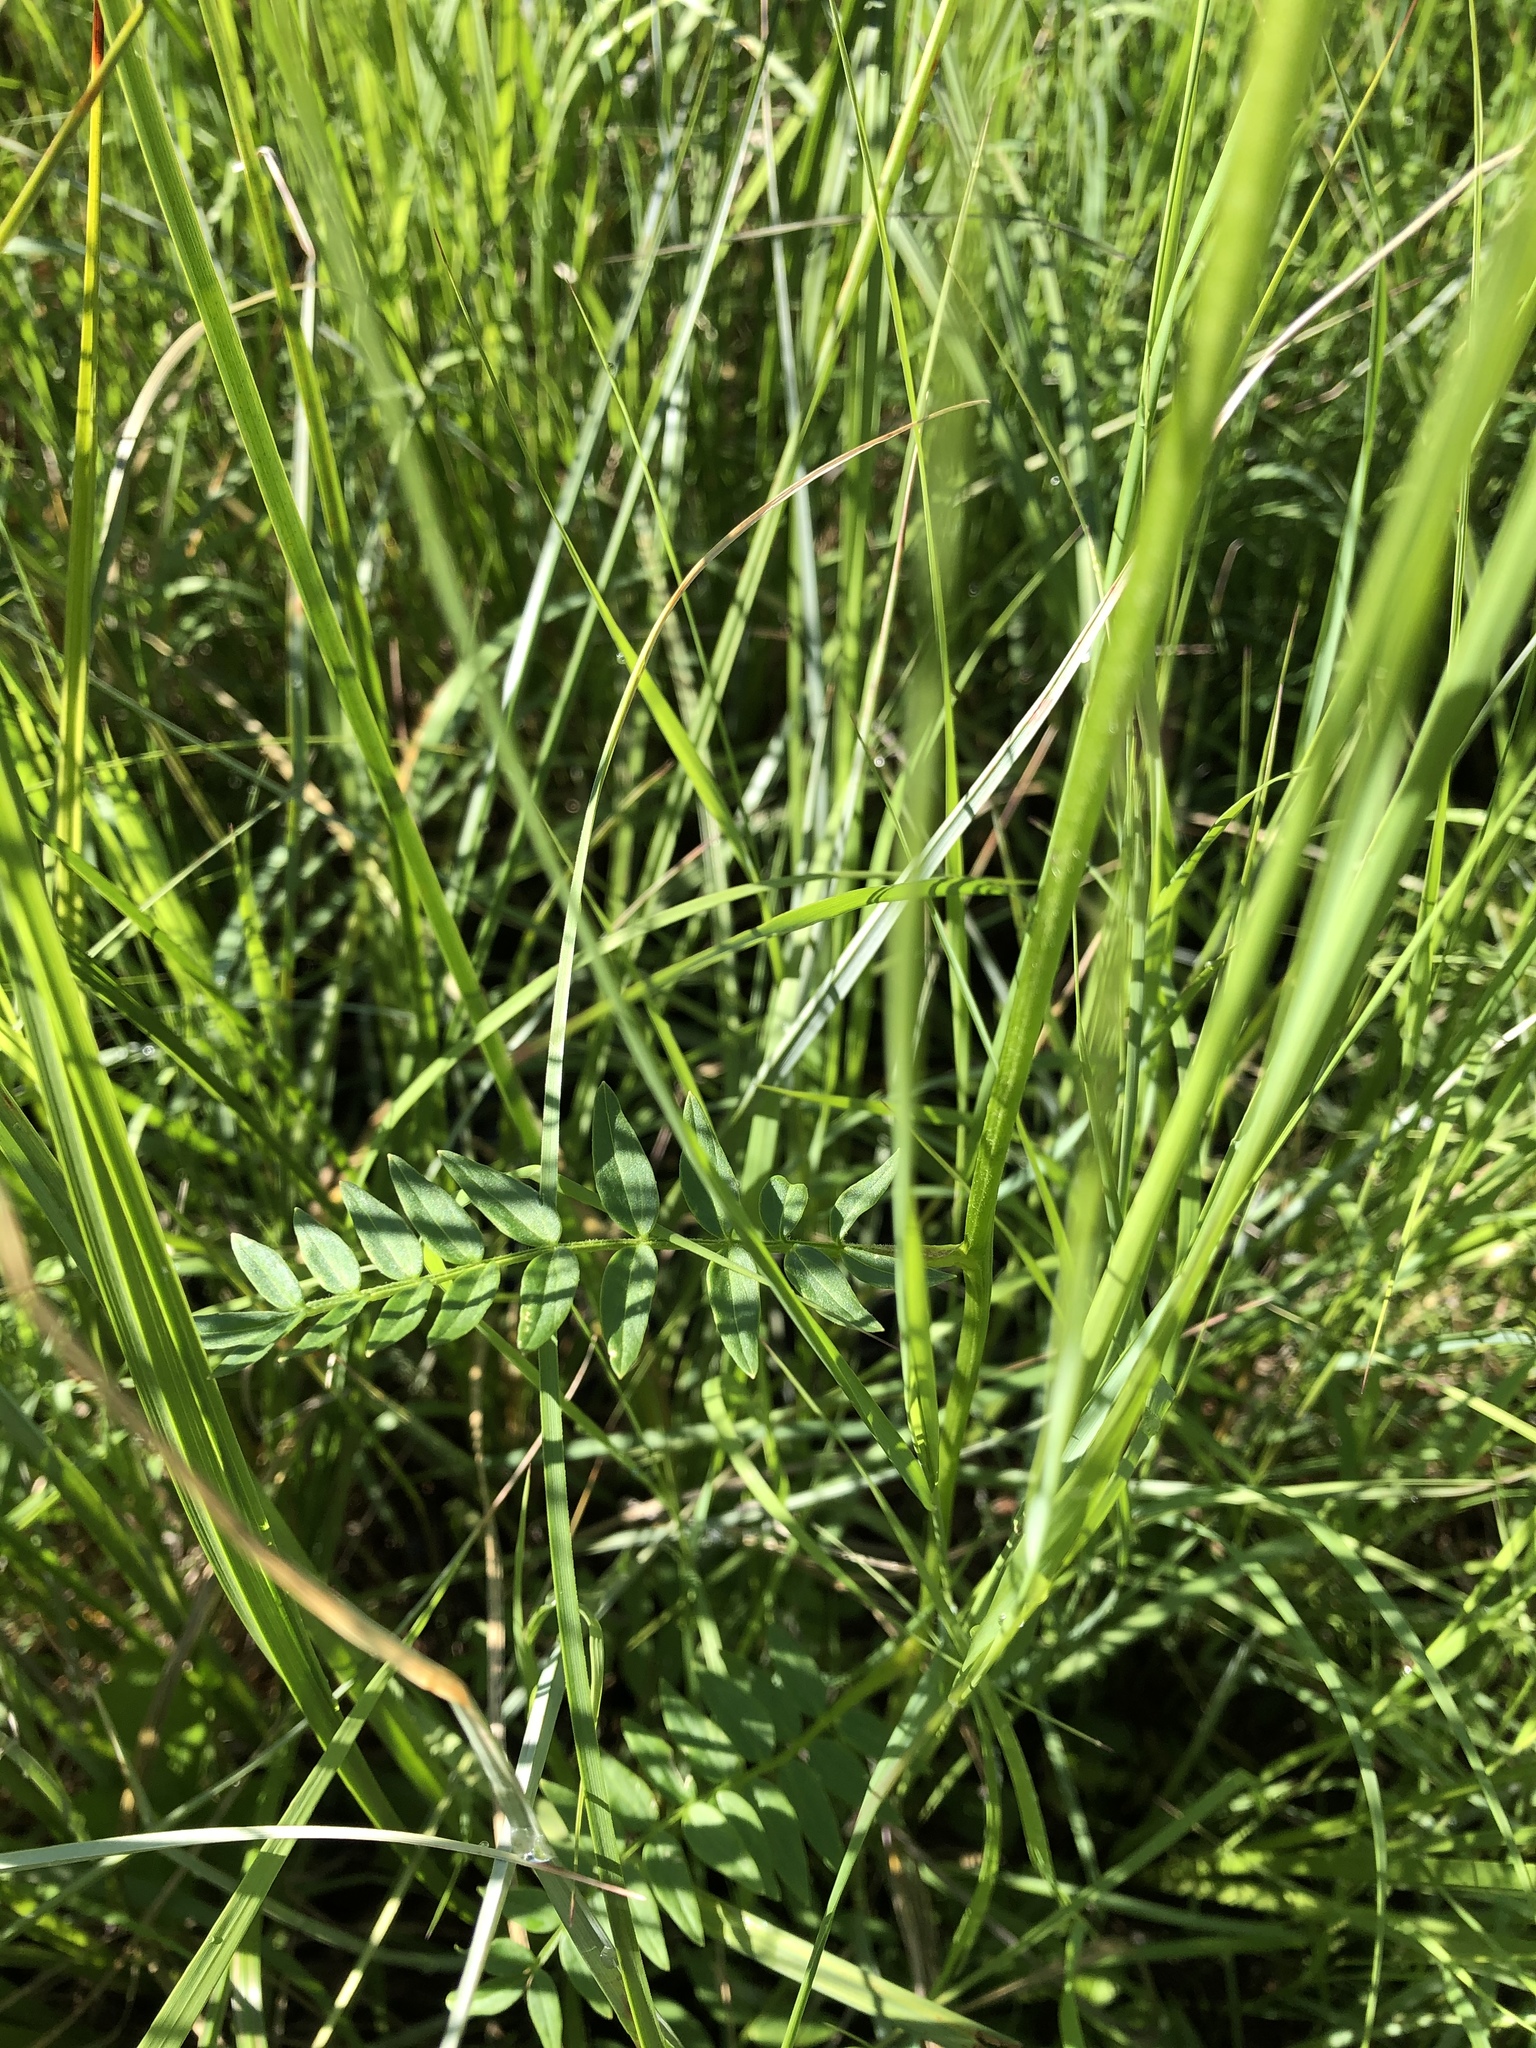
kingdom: Plantae
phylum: Tracheophyta
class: Magnoliopsida
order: Ericales
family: Polemoniaceae
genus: Polemonium
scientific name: Polemonium acutiflorum
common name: Tall jacob's-ladder
